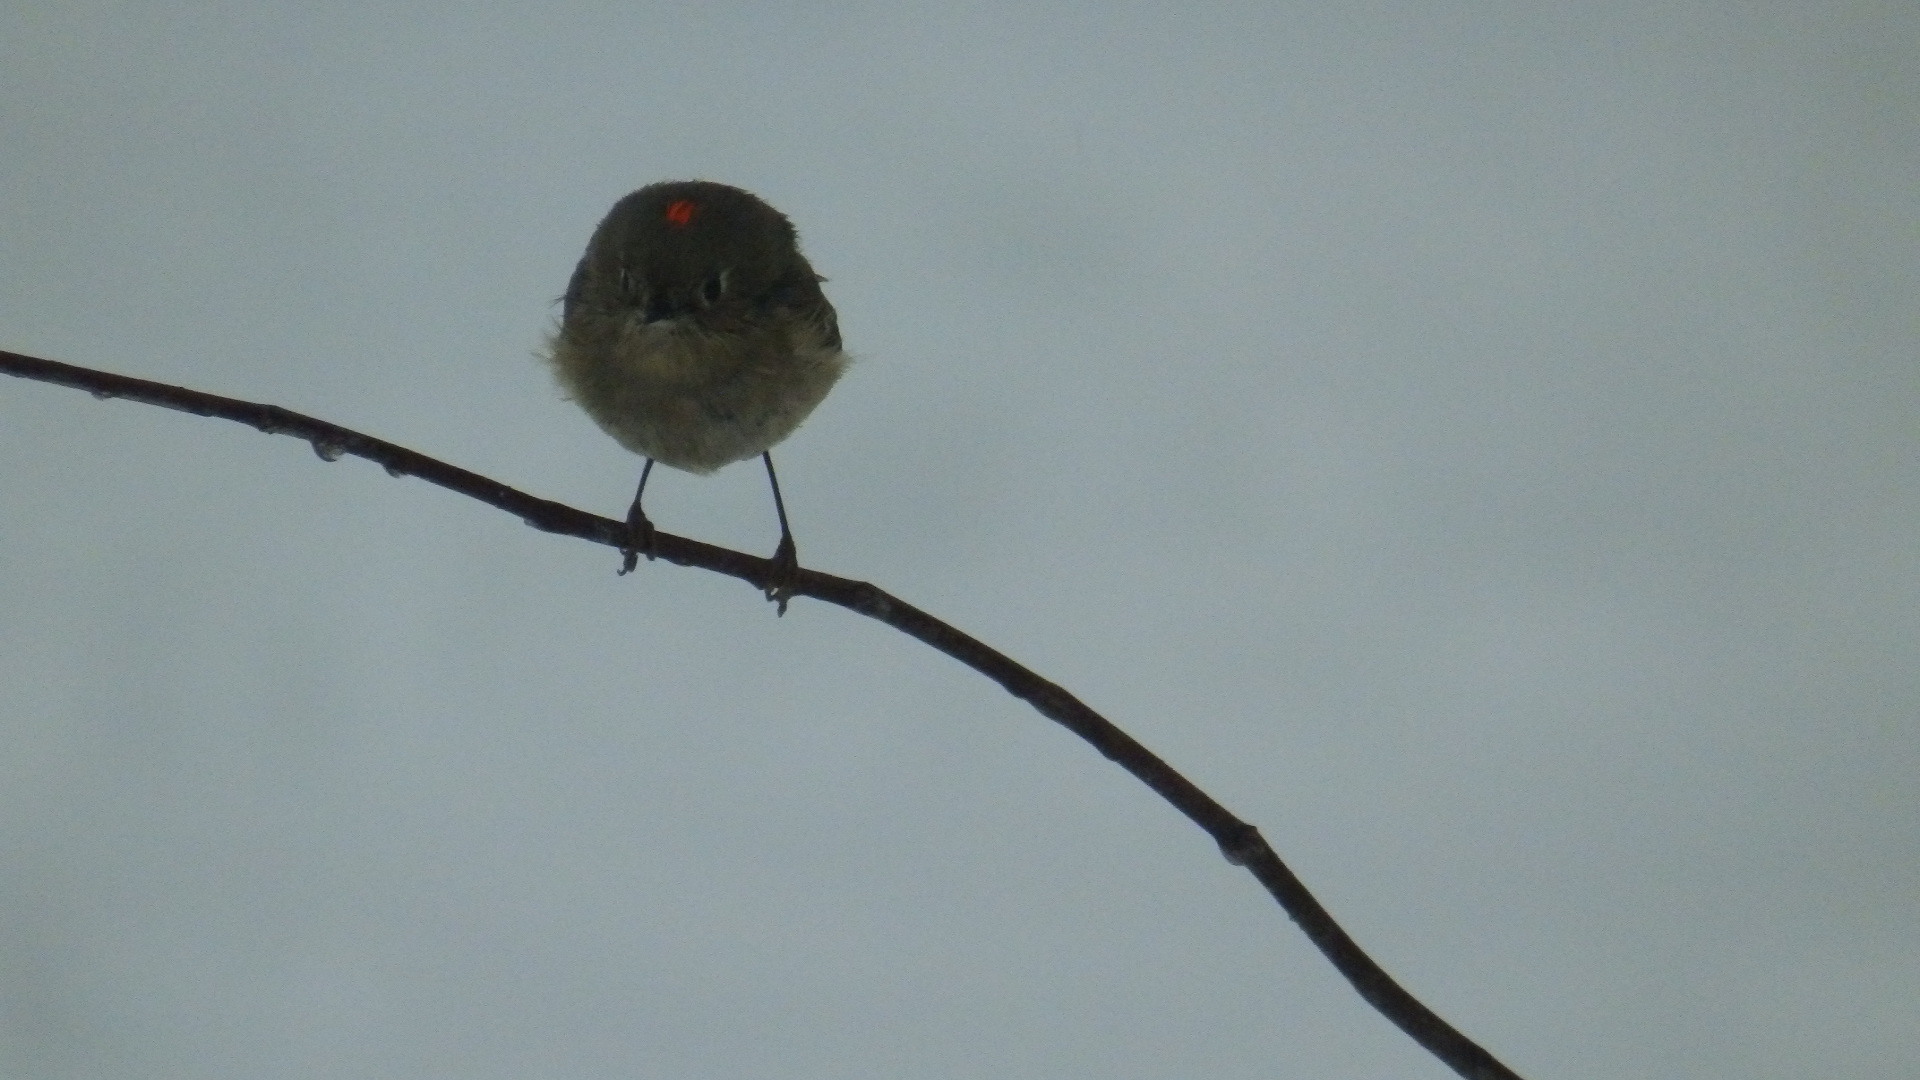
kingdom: Animalia
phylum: Chordata
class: Aves
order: Passeriformes
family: Regulidae
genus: Regulus
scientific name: Regulus calendula
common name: Ruby-crowned kinglet
